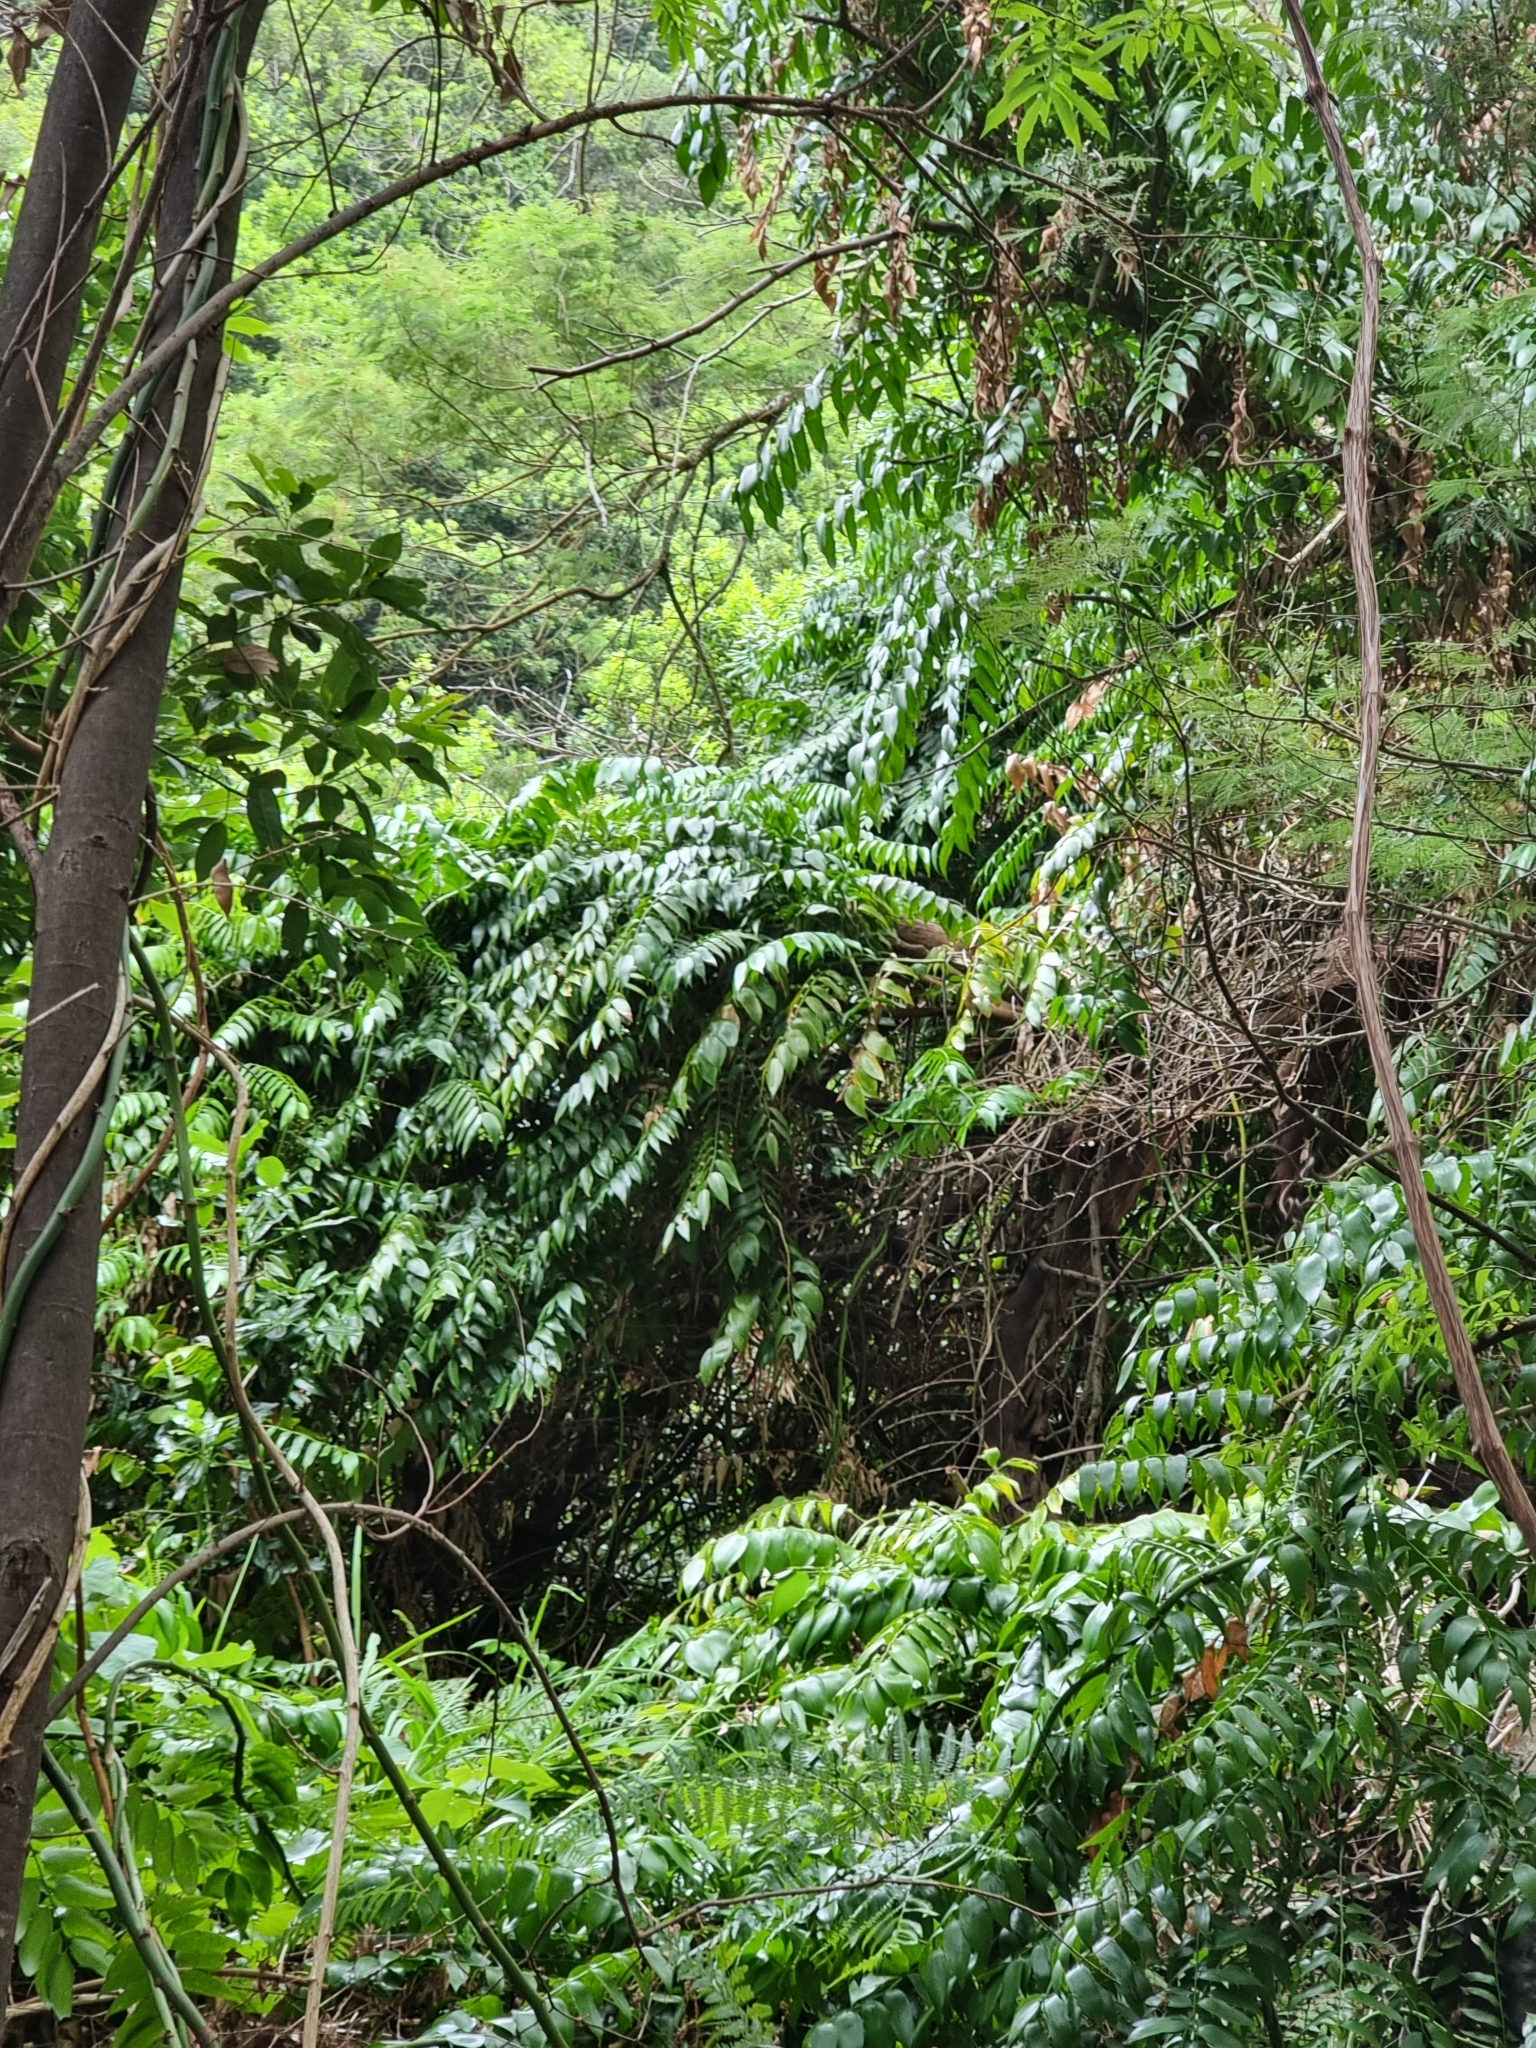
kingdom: Plantae
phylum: Tracheophyta
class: Liliopsida
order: Asparagales
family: Asparagaceae
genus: Semele
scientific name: Semele androgyna
